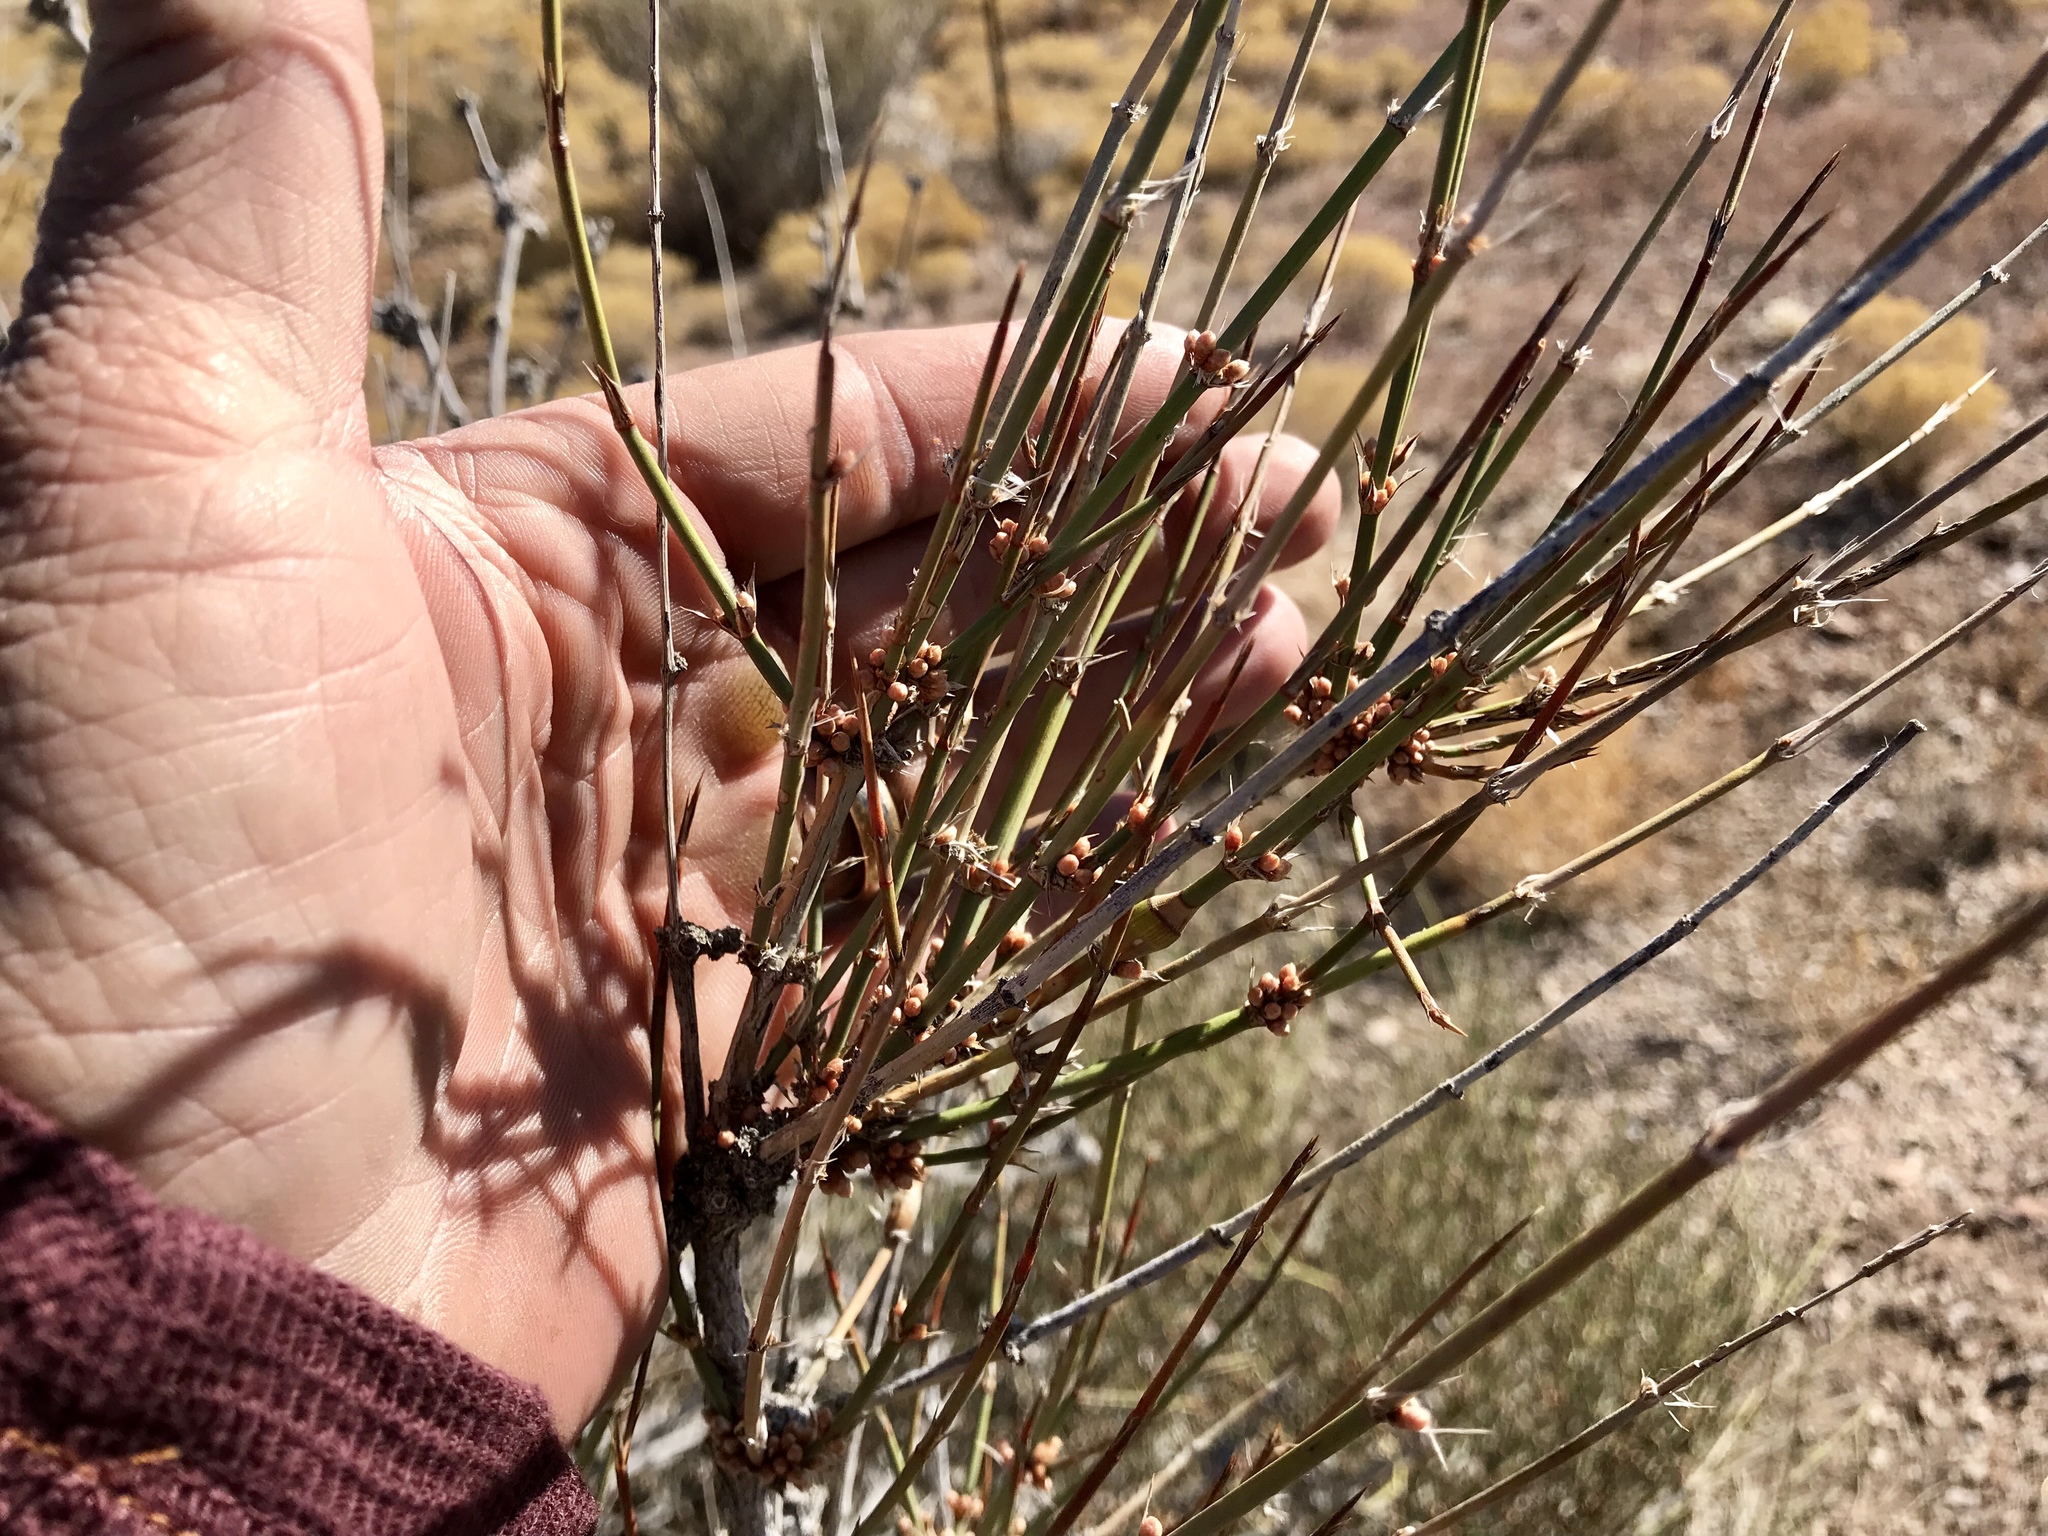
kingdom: Plantae
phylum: Tracheophyta
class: Gnetopsida
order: Ephedrales
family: Ephedraceae
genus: Ephedra
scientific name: Ephedra trifurca
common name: Mexican-tea
